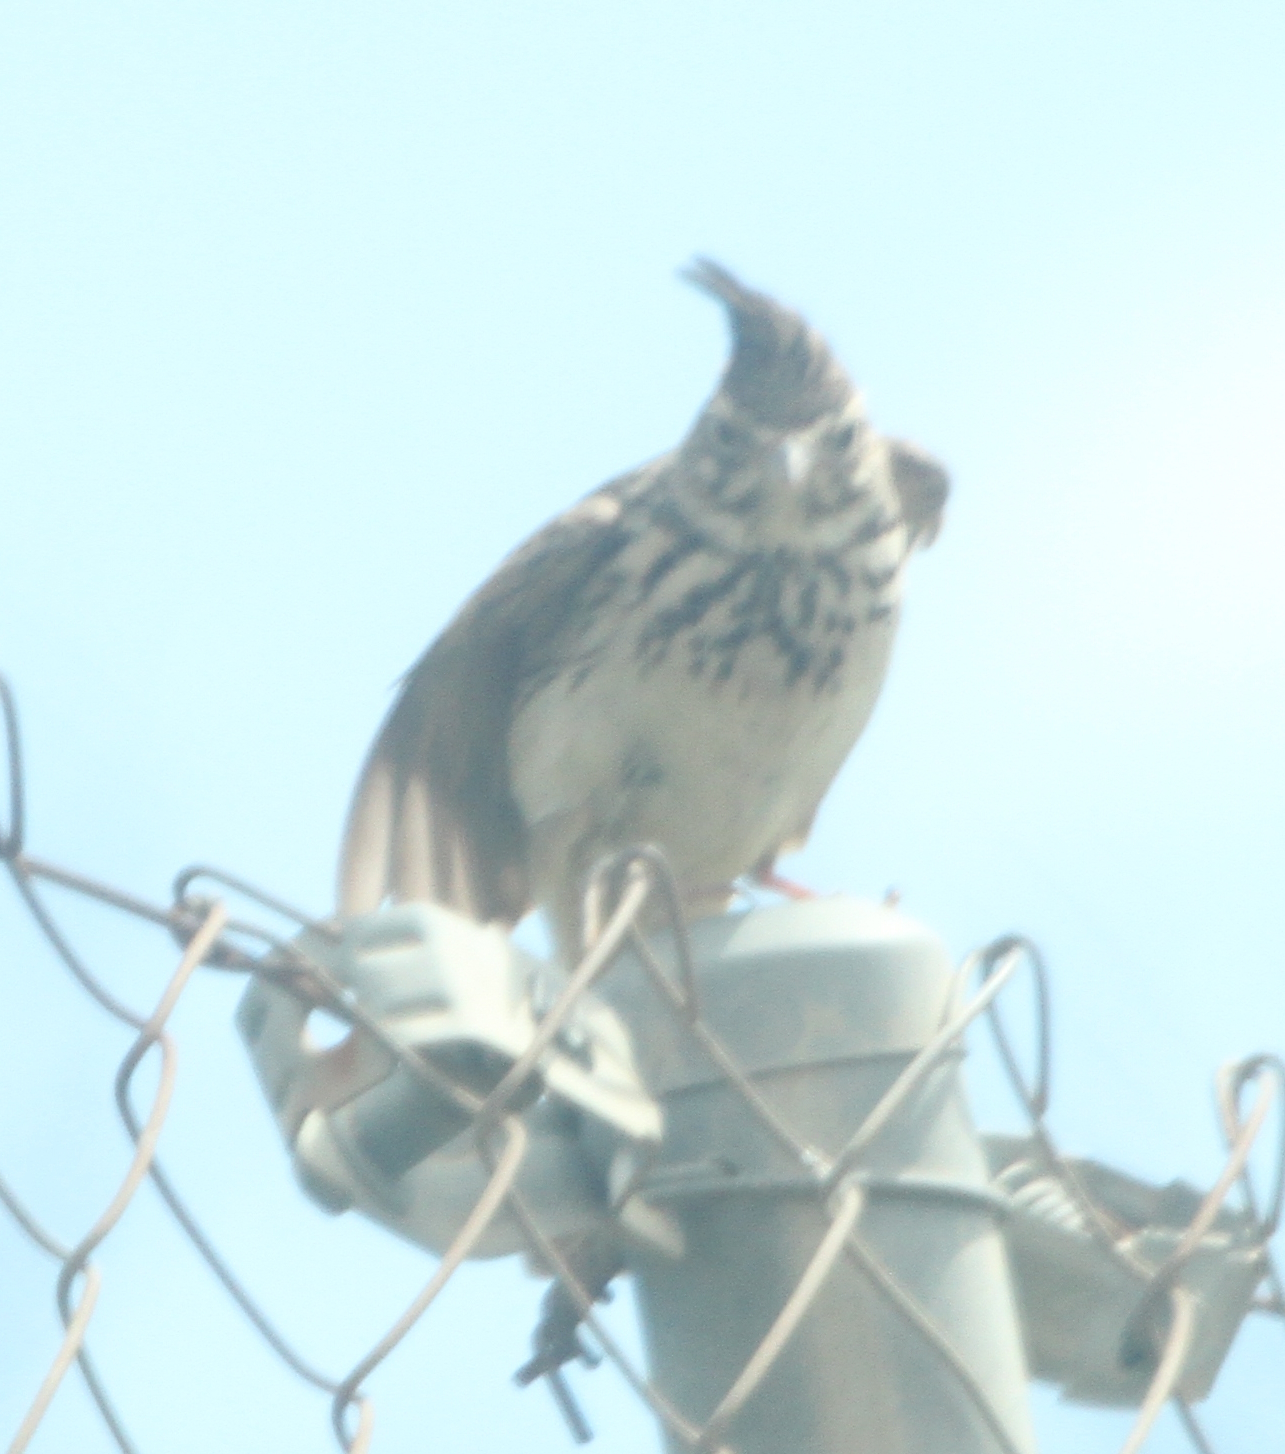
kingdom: Animalia
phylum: Chordata
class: Aves
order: Passeriformes
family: Alaudidae
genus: Galerida
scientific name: Galerida theklae
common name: Thekla lark
